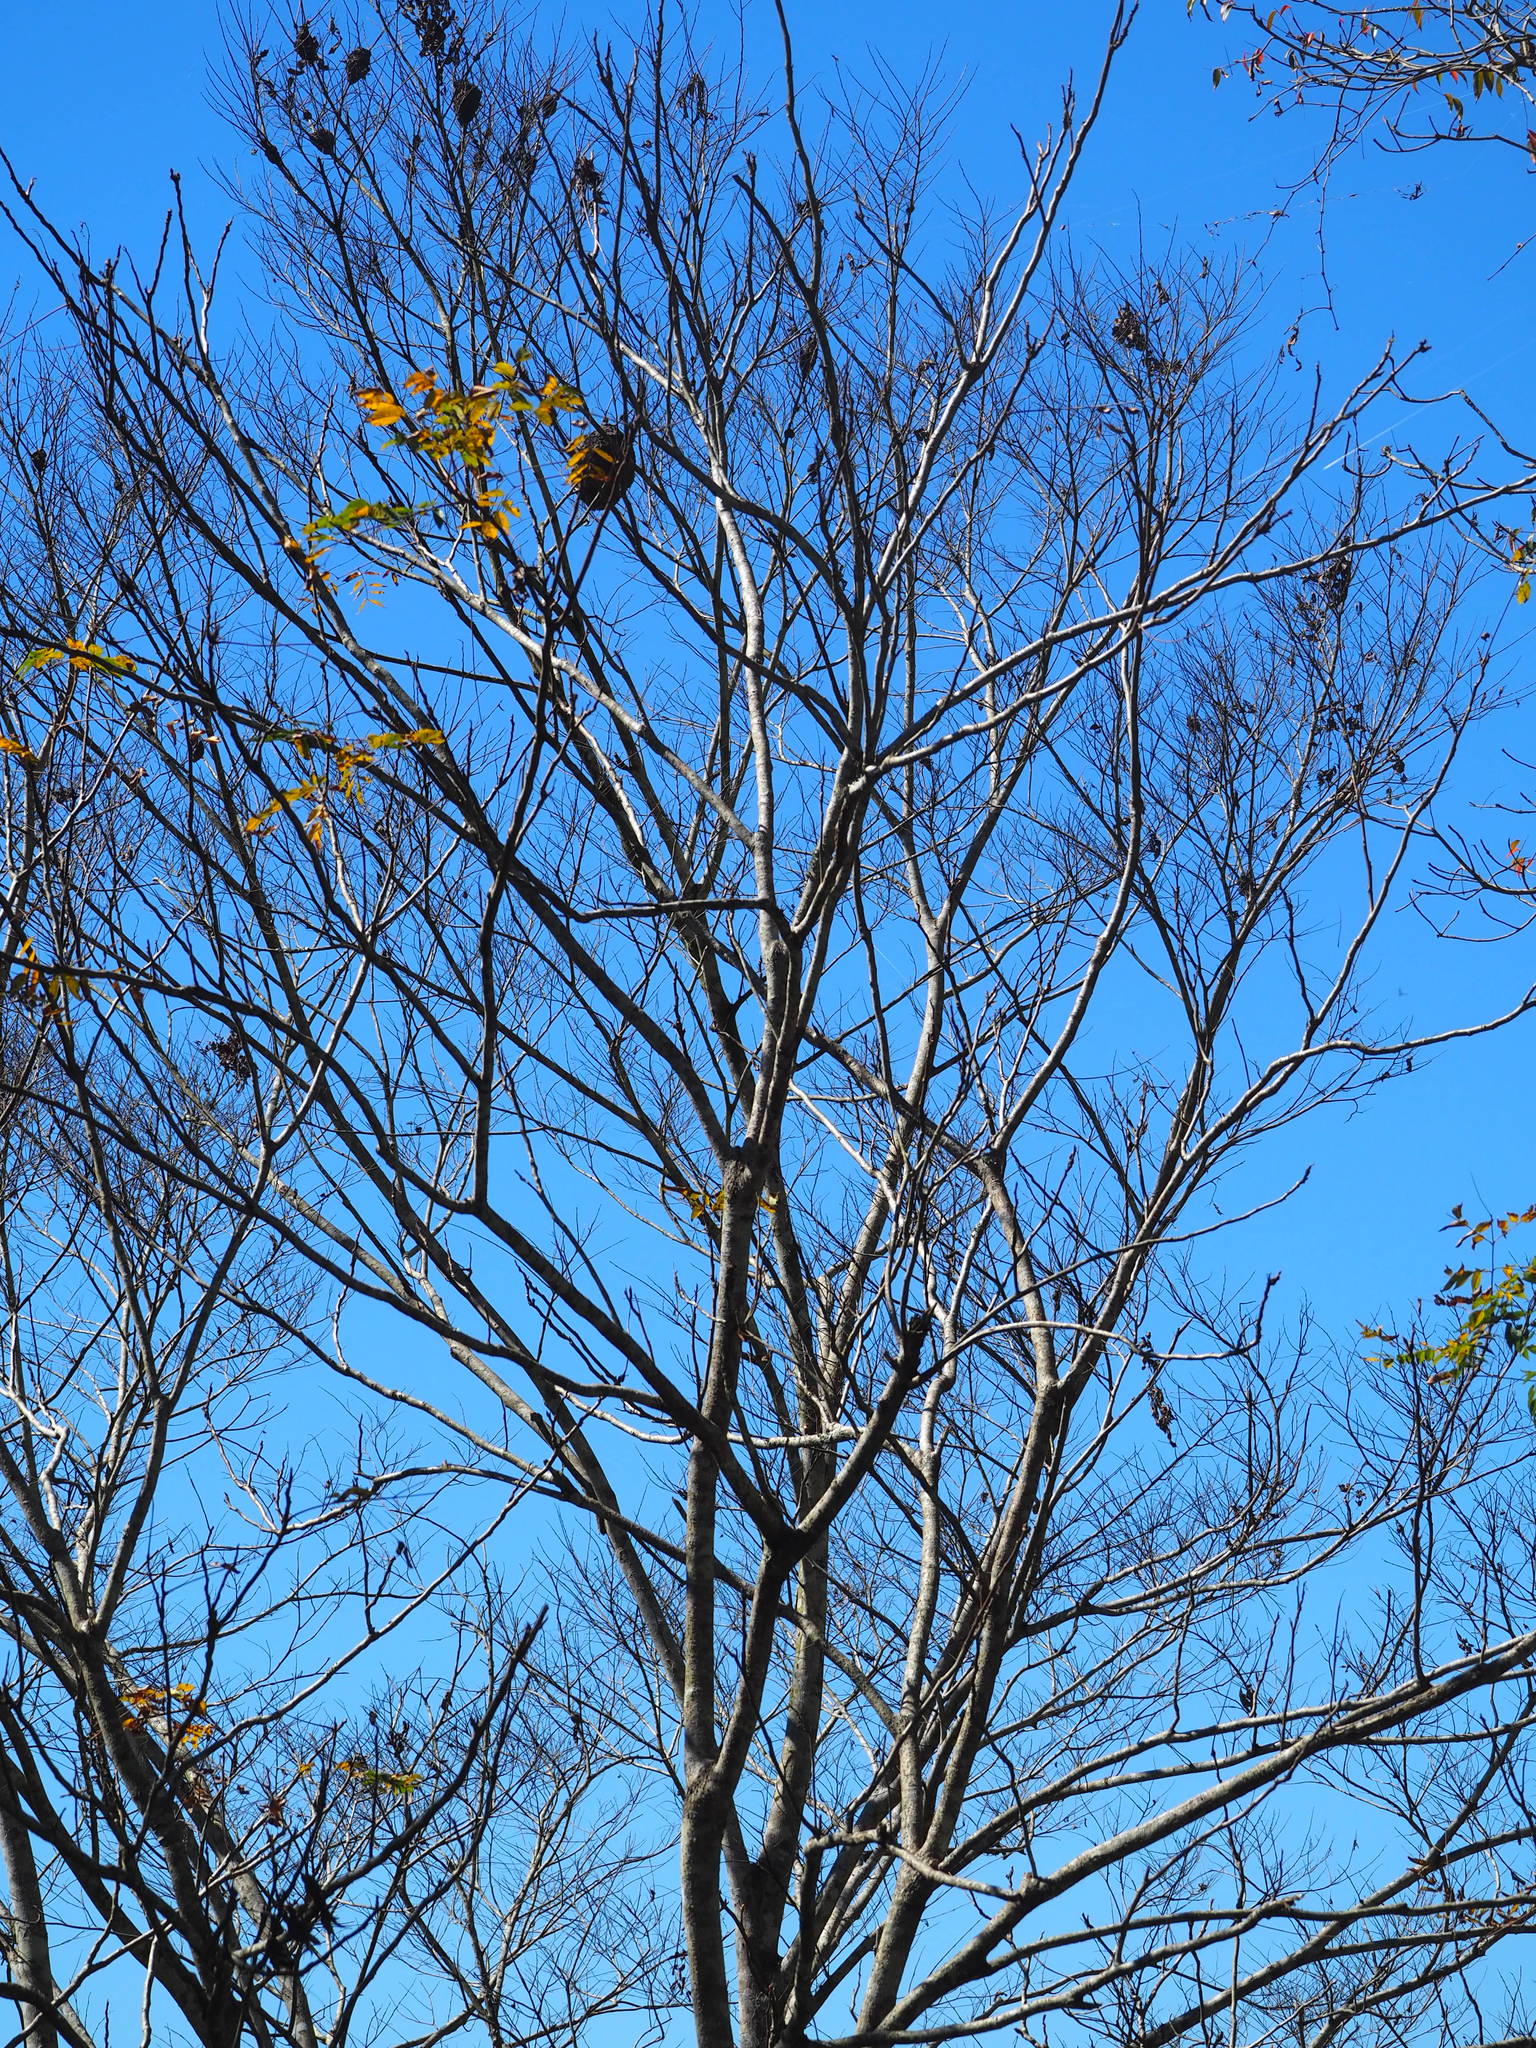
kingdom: Plantae
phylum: Tracheophyta
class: Magnoliopsida
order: Sapindales
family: Sapindaceae
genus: Sapindus
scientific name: Sapindus mukorossi
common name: Chinese soapberry
